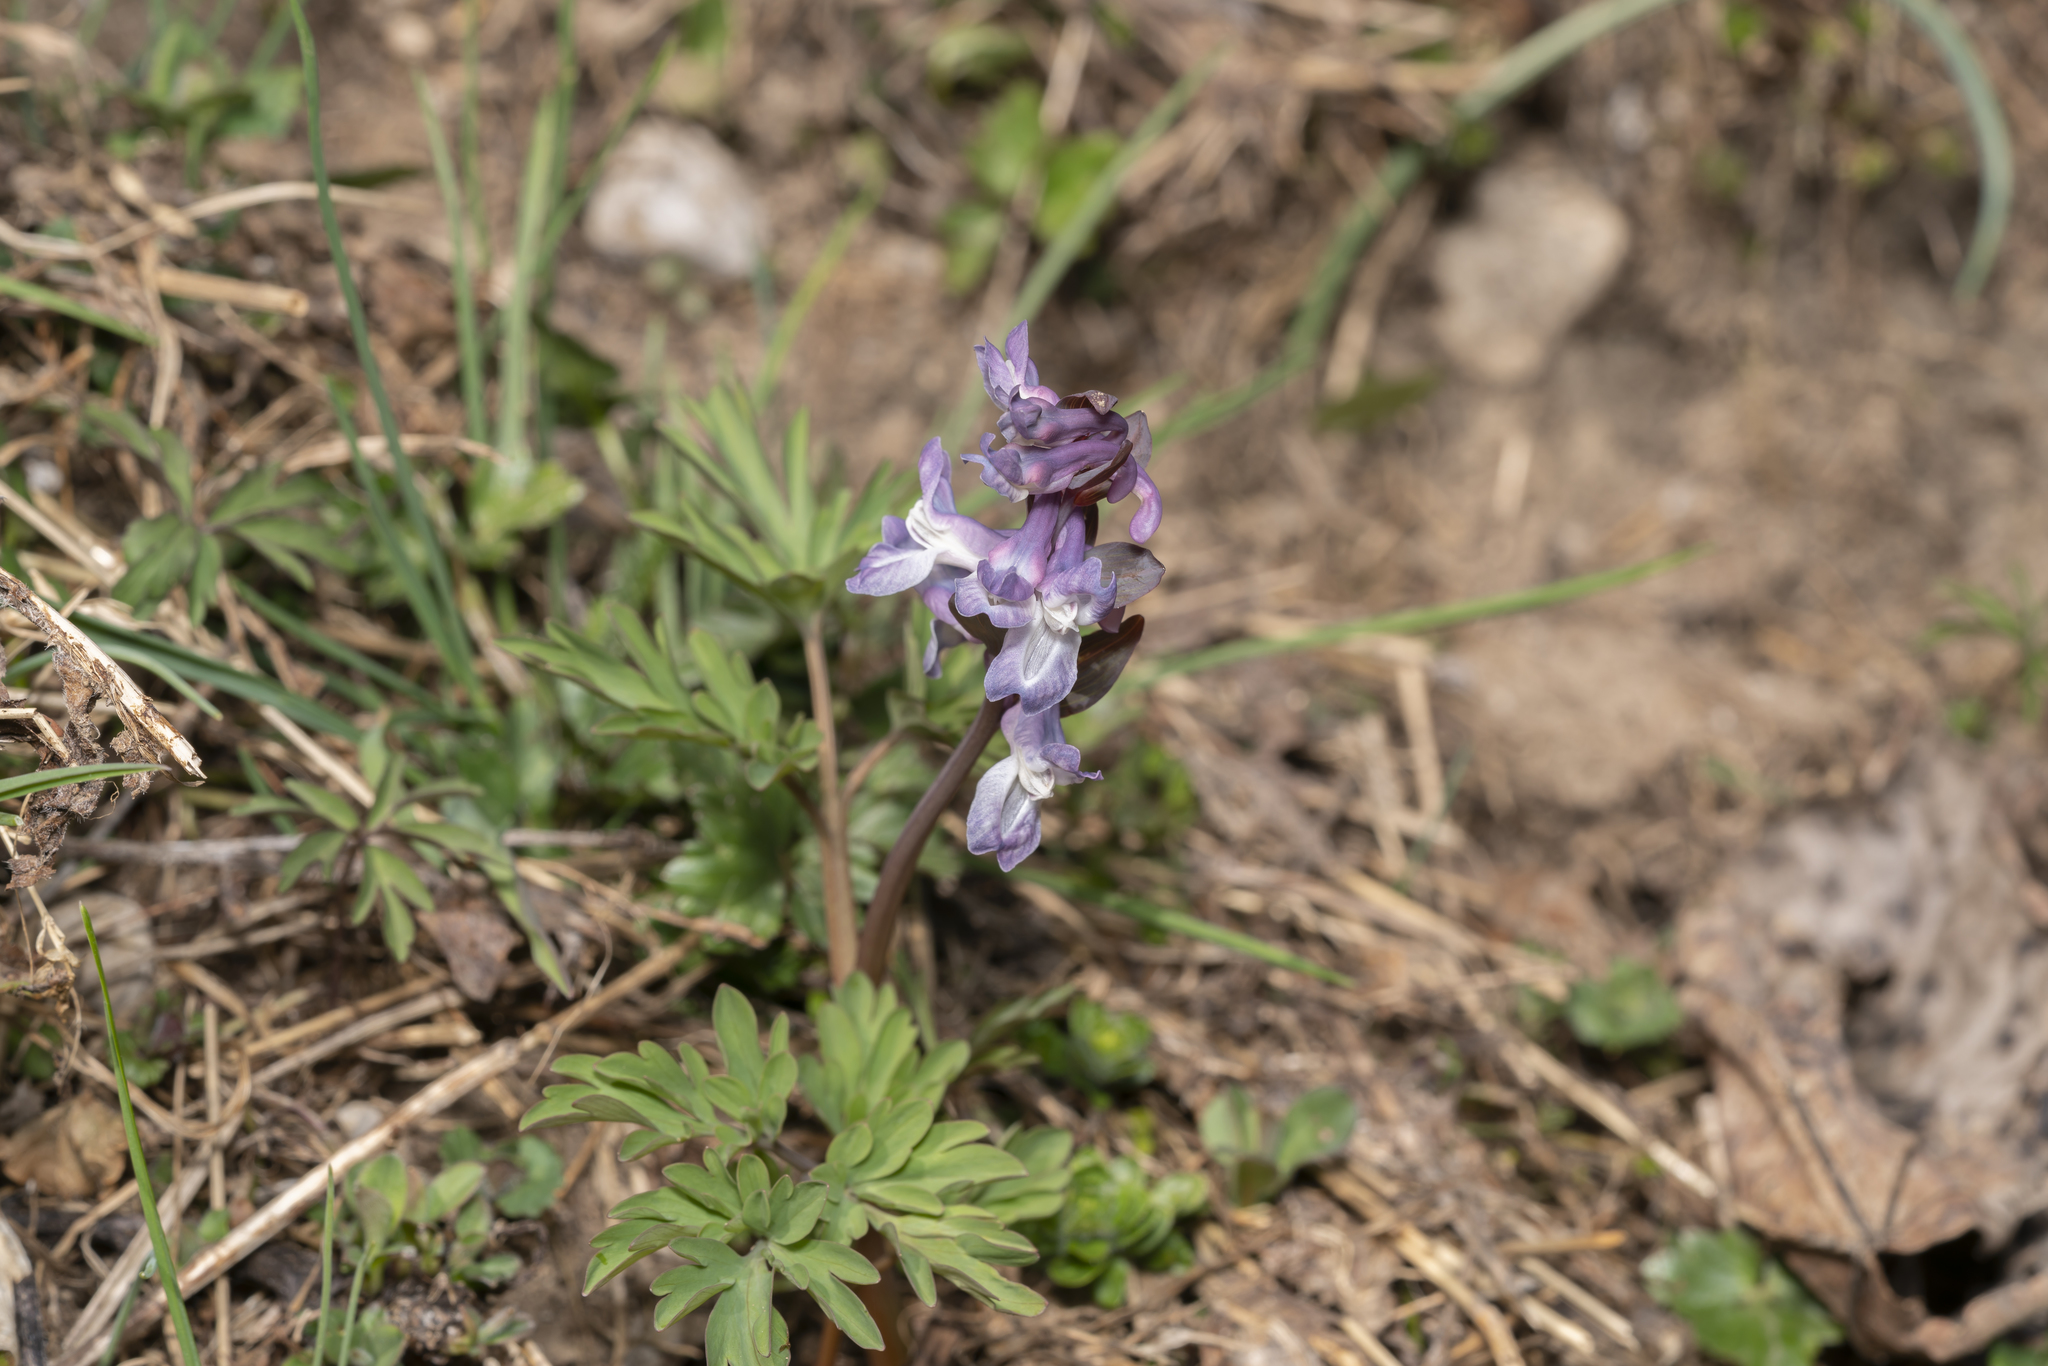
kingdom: Plantae
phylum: Tracheophyta
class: Magnoliopsida
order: Ranunculales
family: Papaveraceae
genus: Corydalis
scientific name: Corydalis cava
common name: Hollowroot
